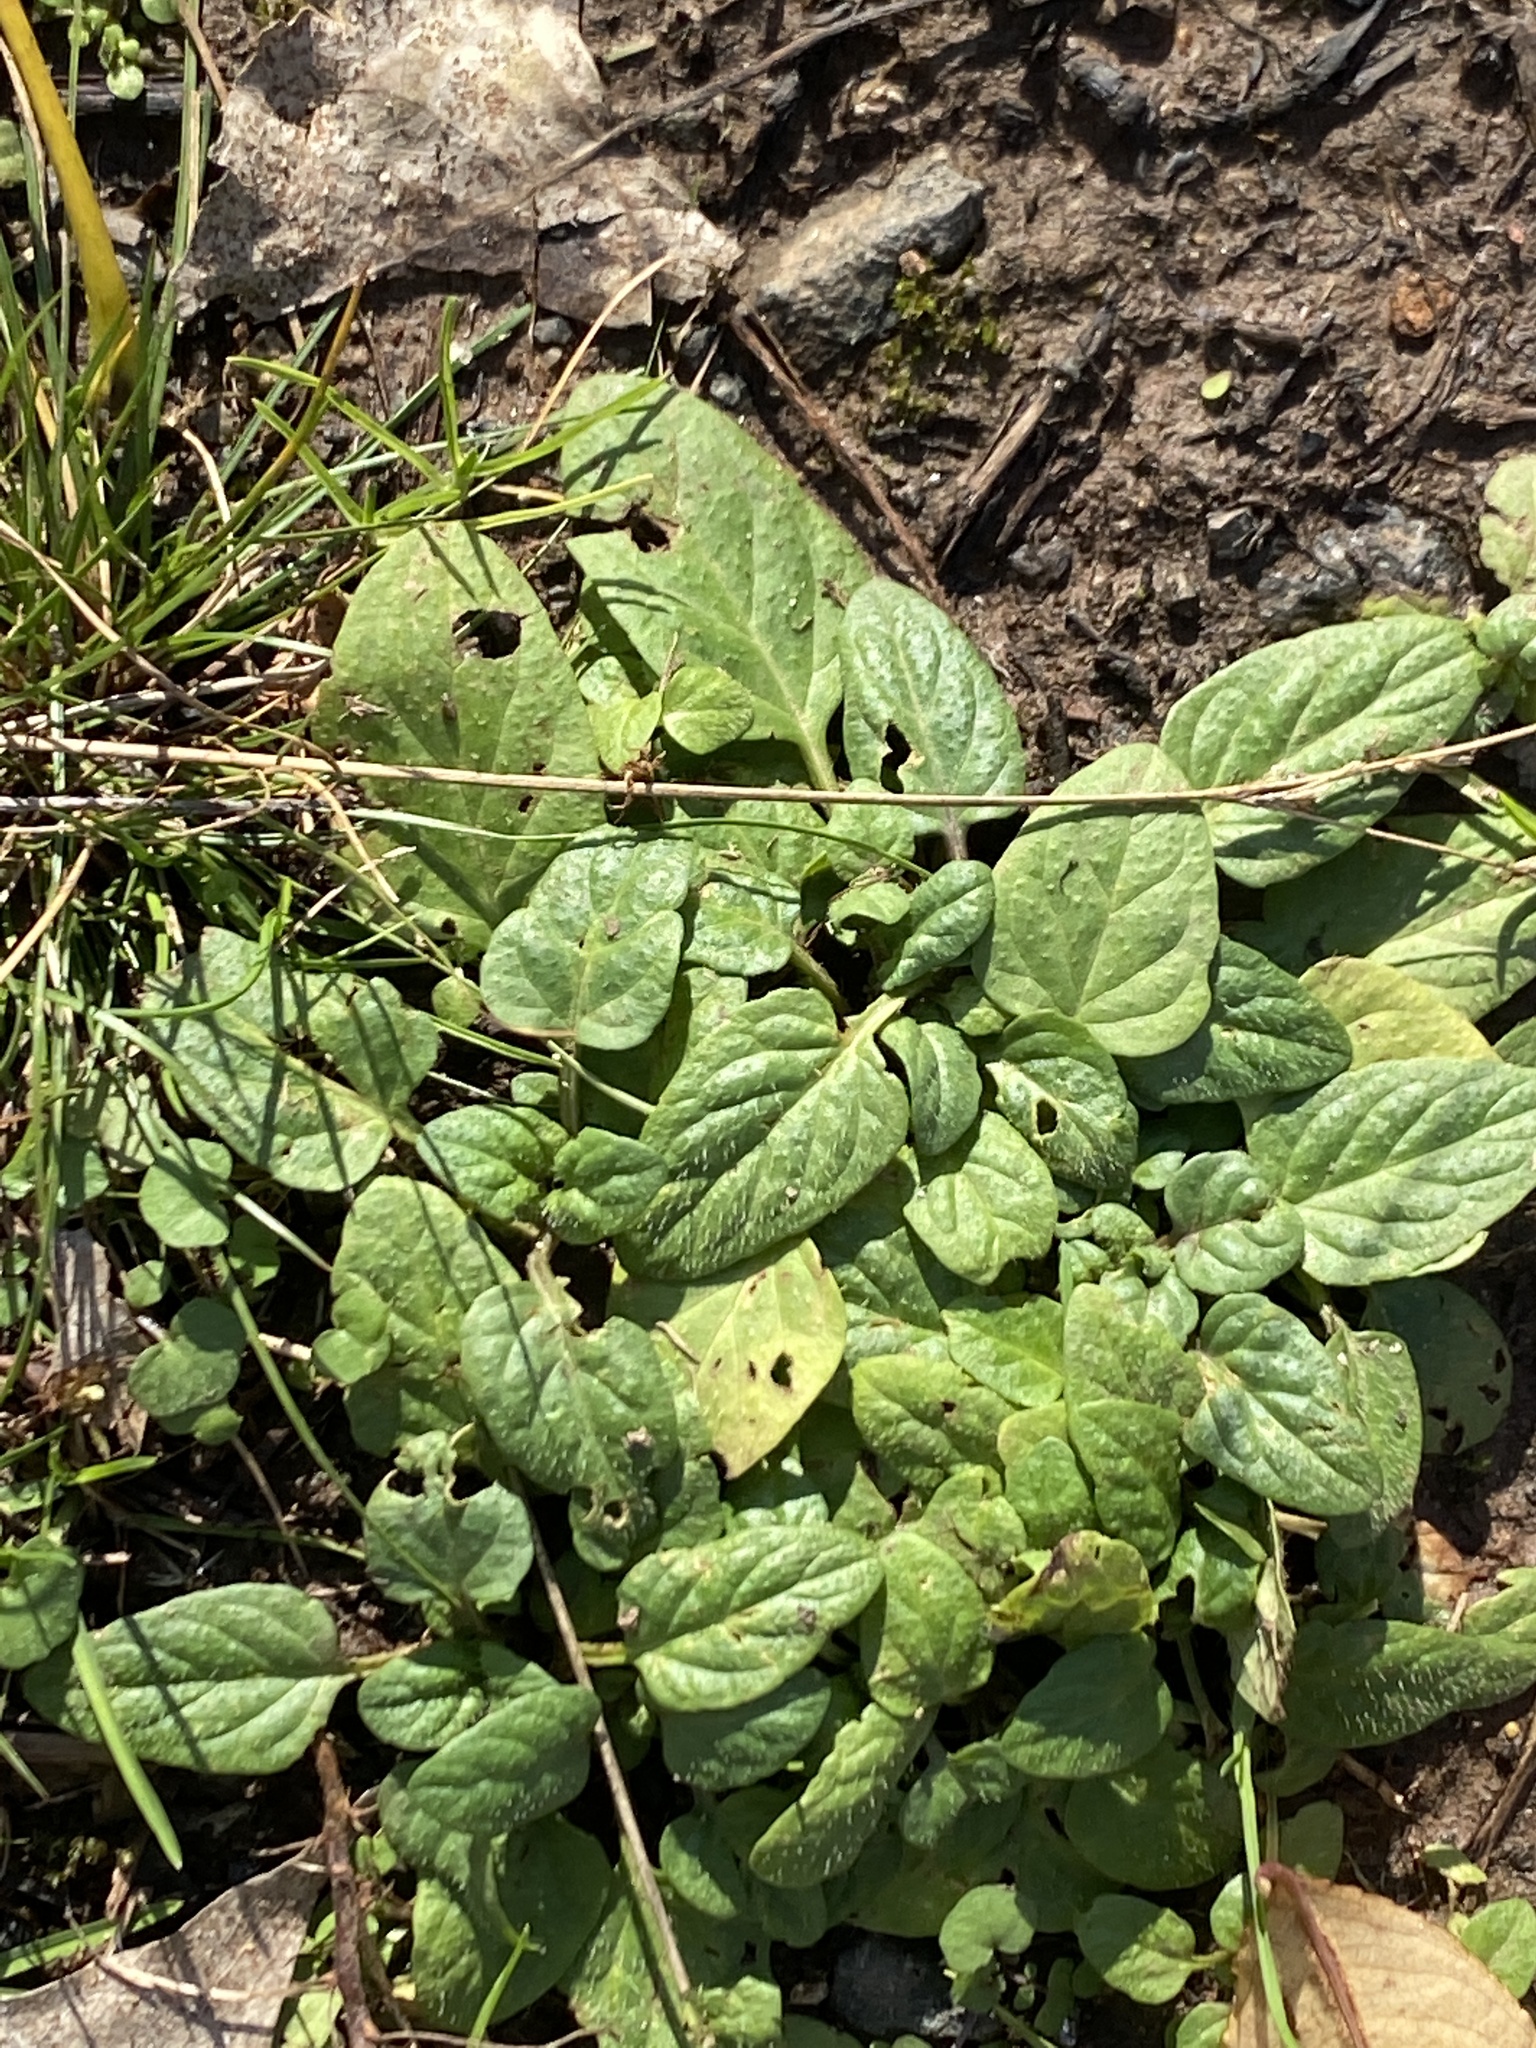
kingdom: Plantae
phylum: Tracheophyta
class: Magnoliopsida
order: Lamiales
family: Lamiaceae
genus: Prunella
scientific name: Prunella vulgaris
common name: Heal-all
